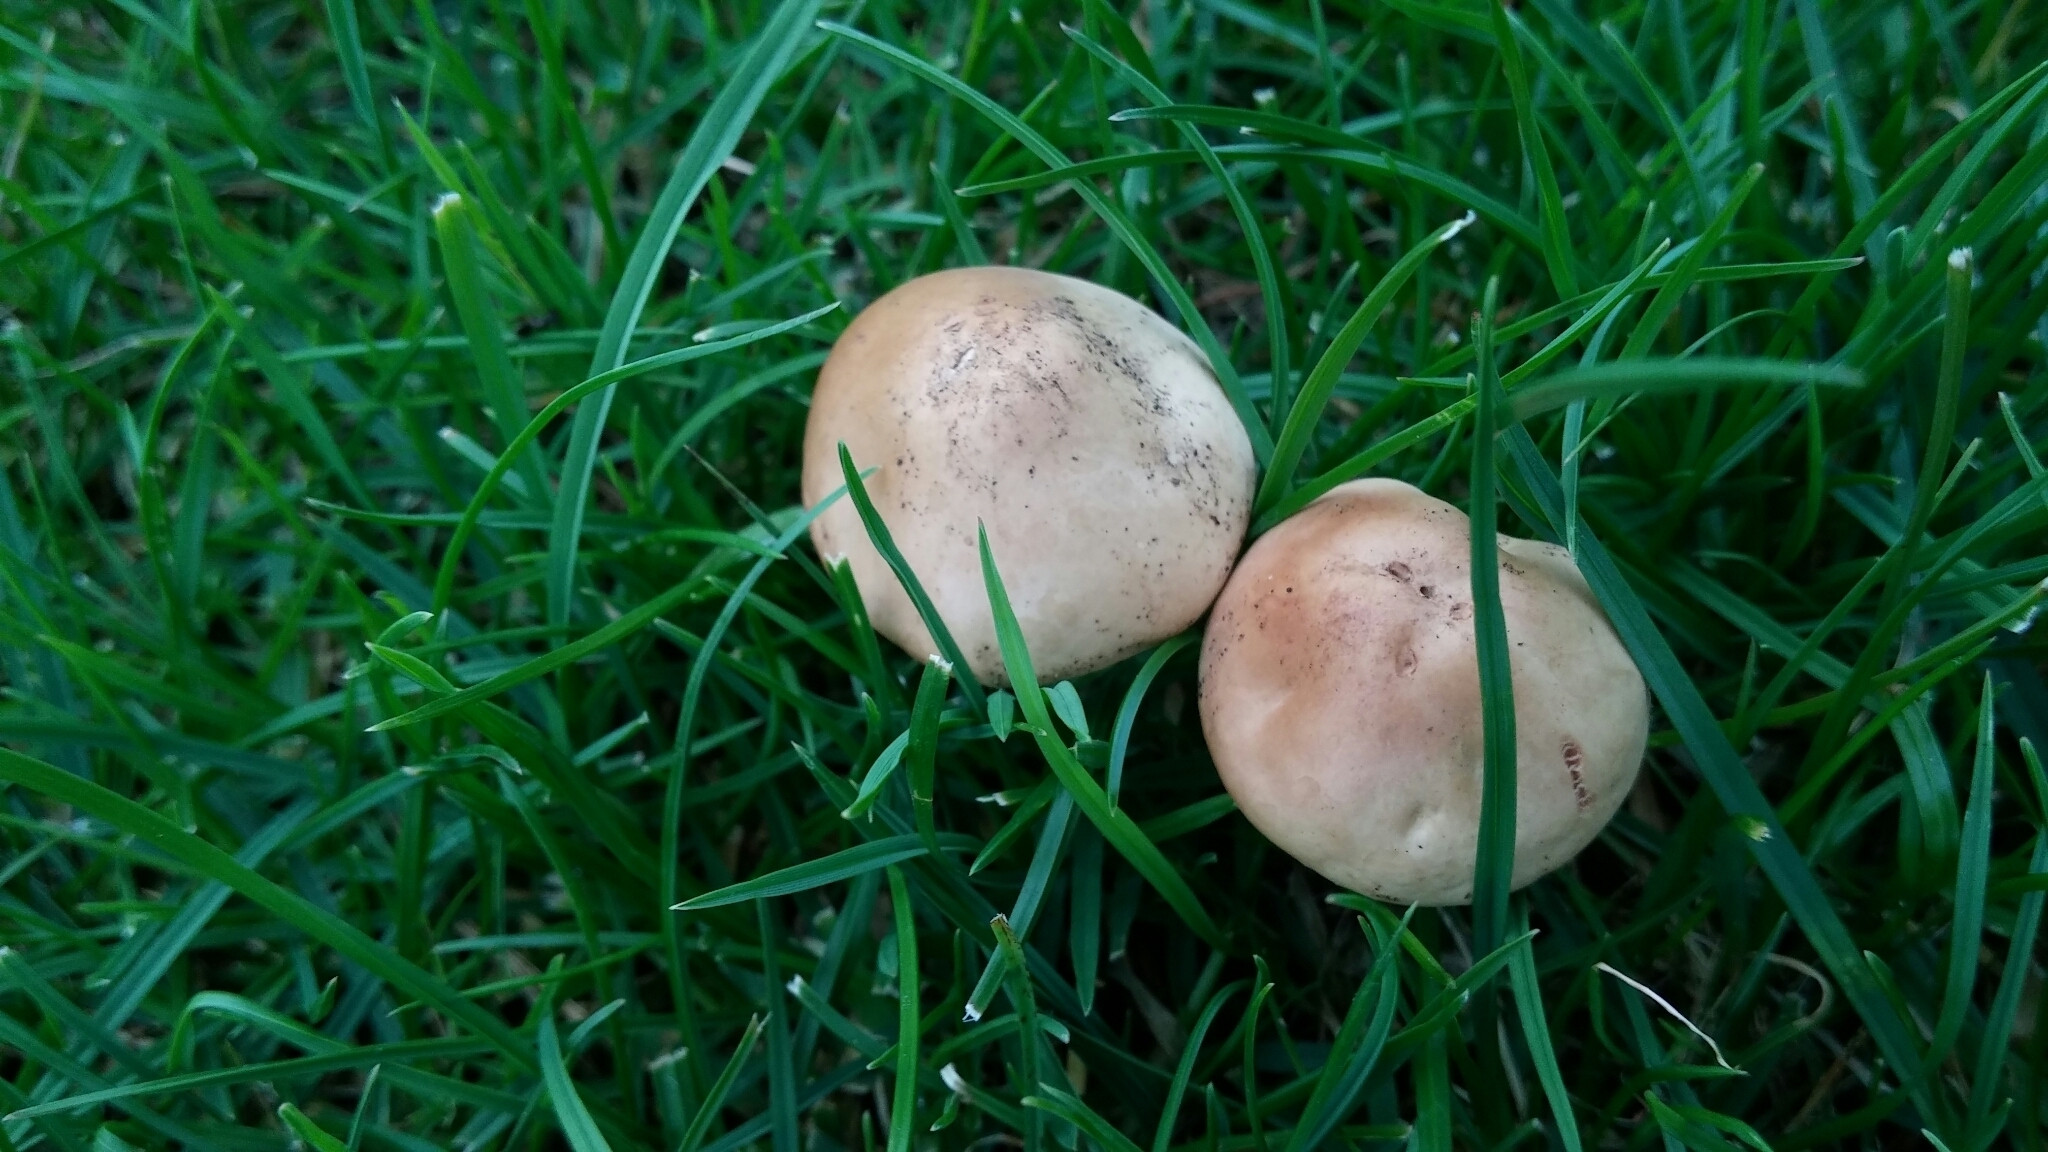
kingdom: Fungi
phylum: Basidiomycota
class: Agaricomycetes
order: Agaricales
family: Marasmiaceae
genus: Marasmius
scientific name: Marasmius oreades
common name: Fairy ring champignon
